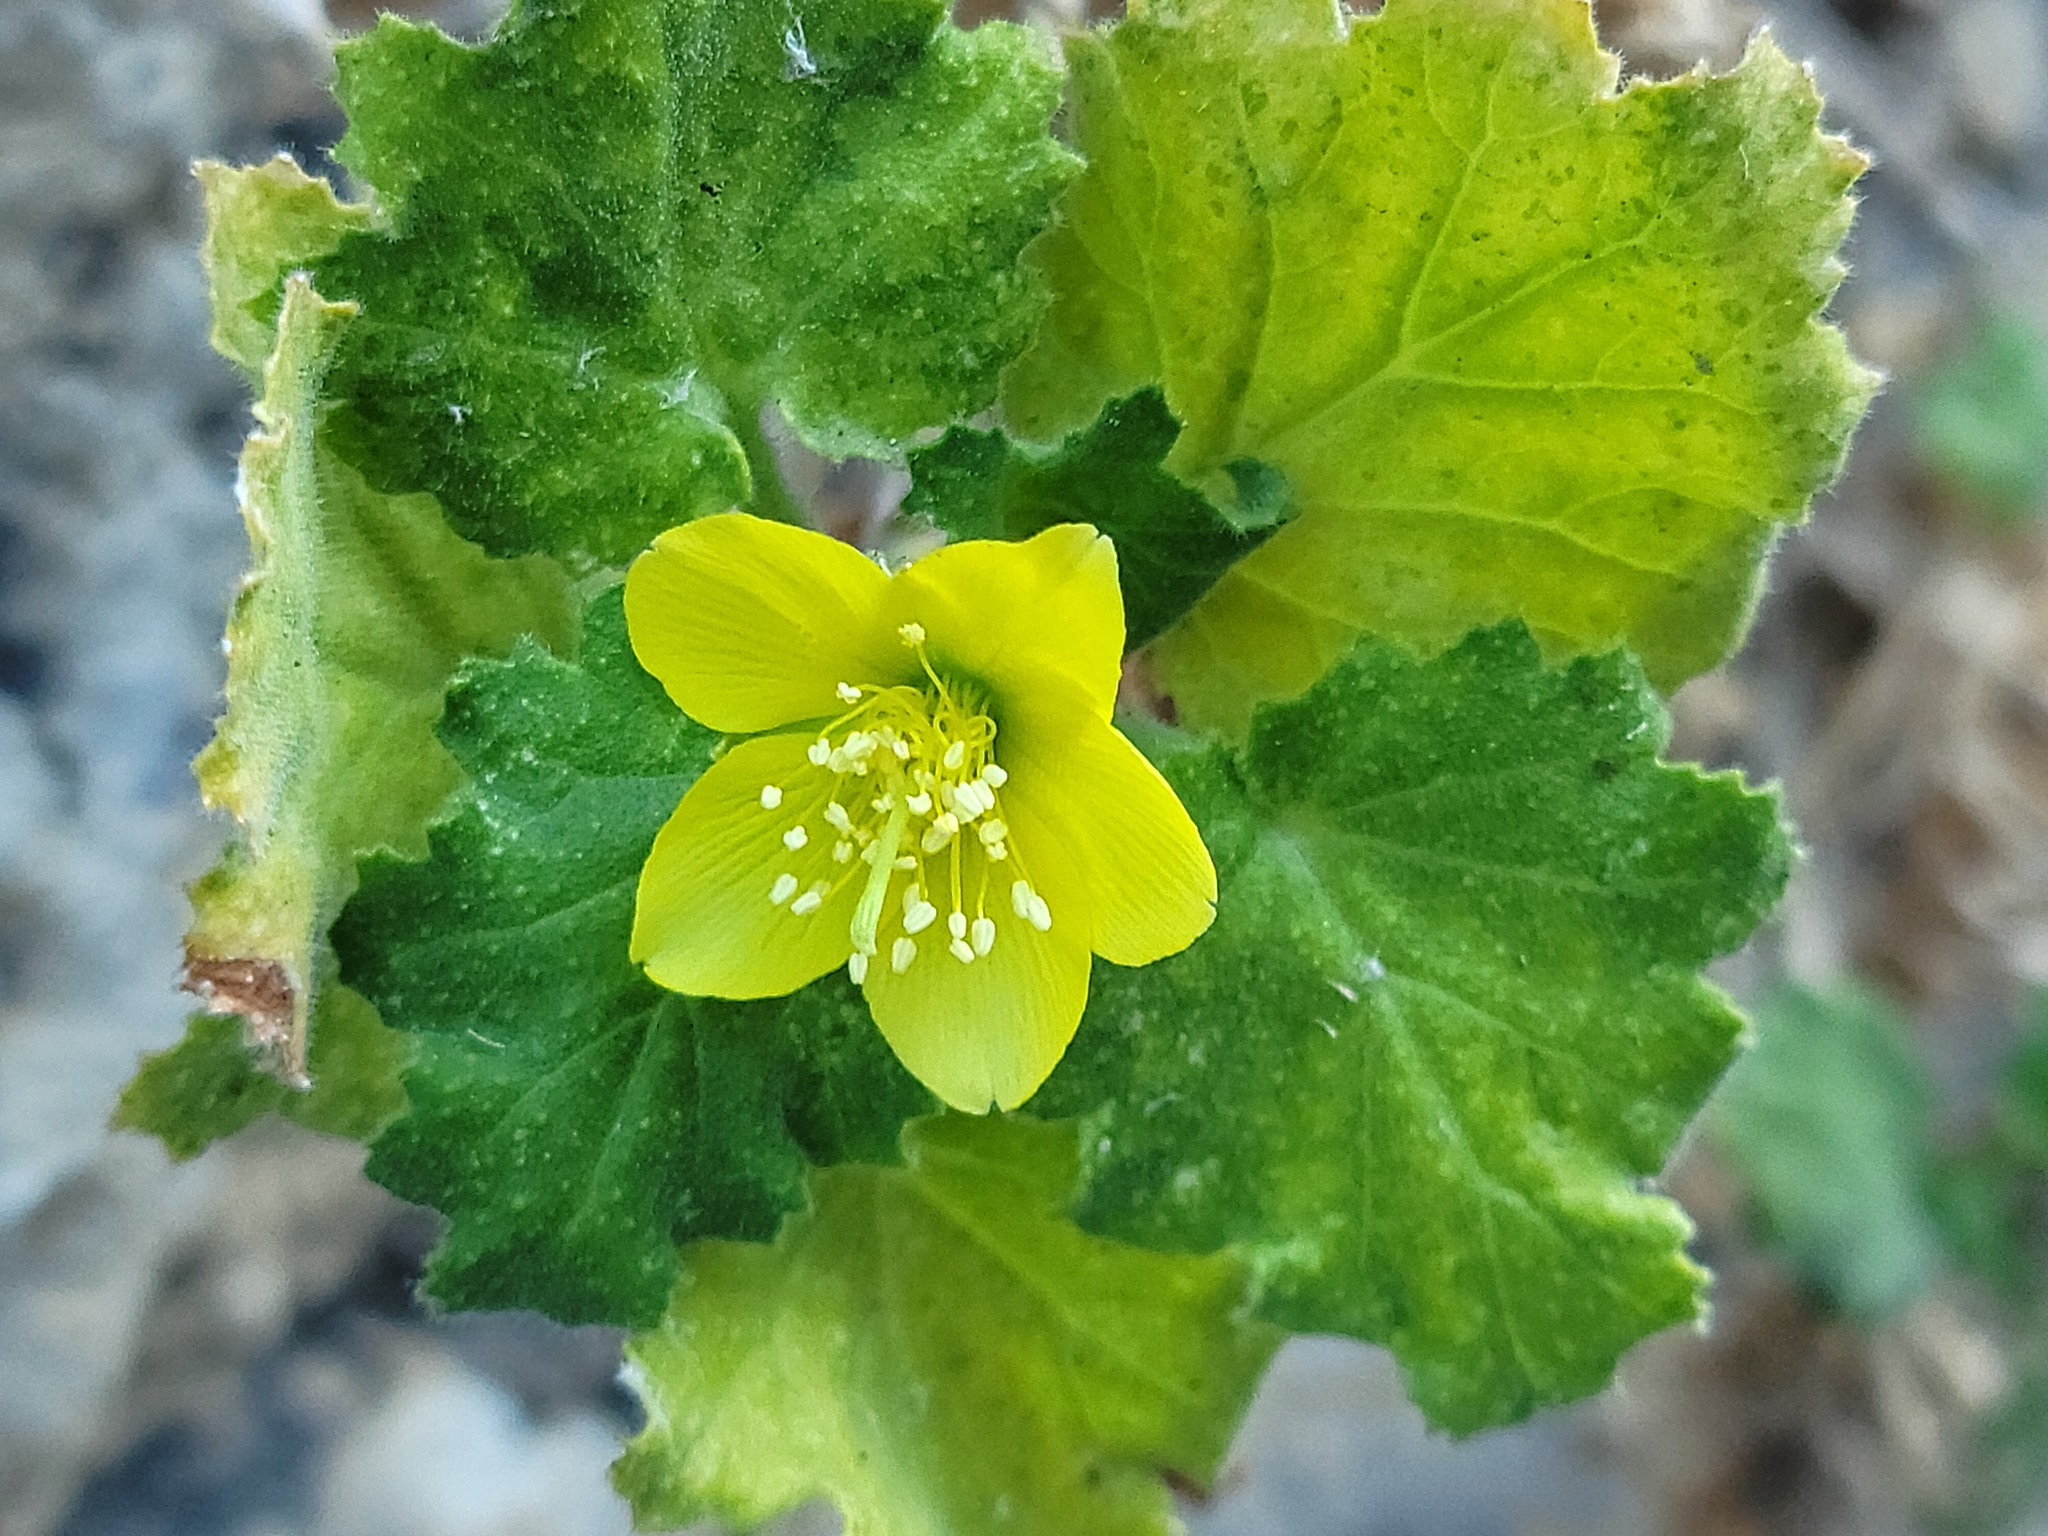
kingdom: Plantae
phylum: Tracheophyta
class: Magnoliopsida
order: Cornales
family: Loasaceae
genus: Eucnide
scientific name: Eucnide lobata
